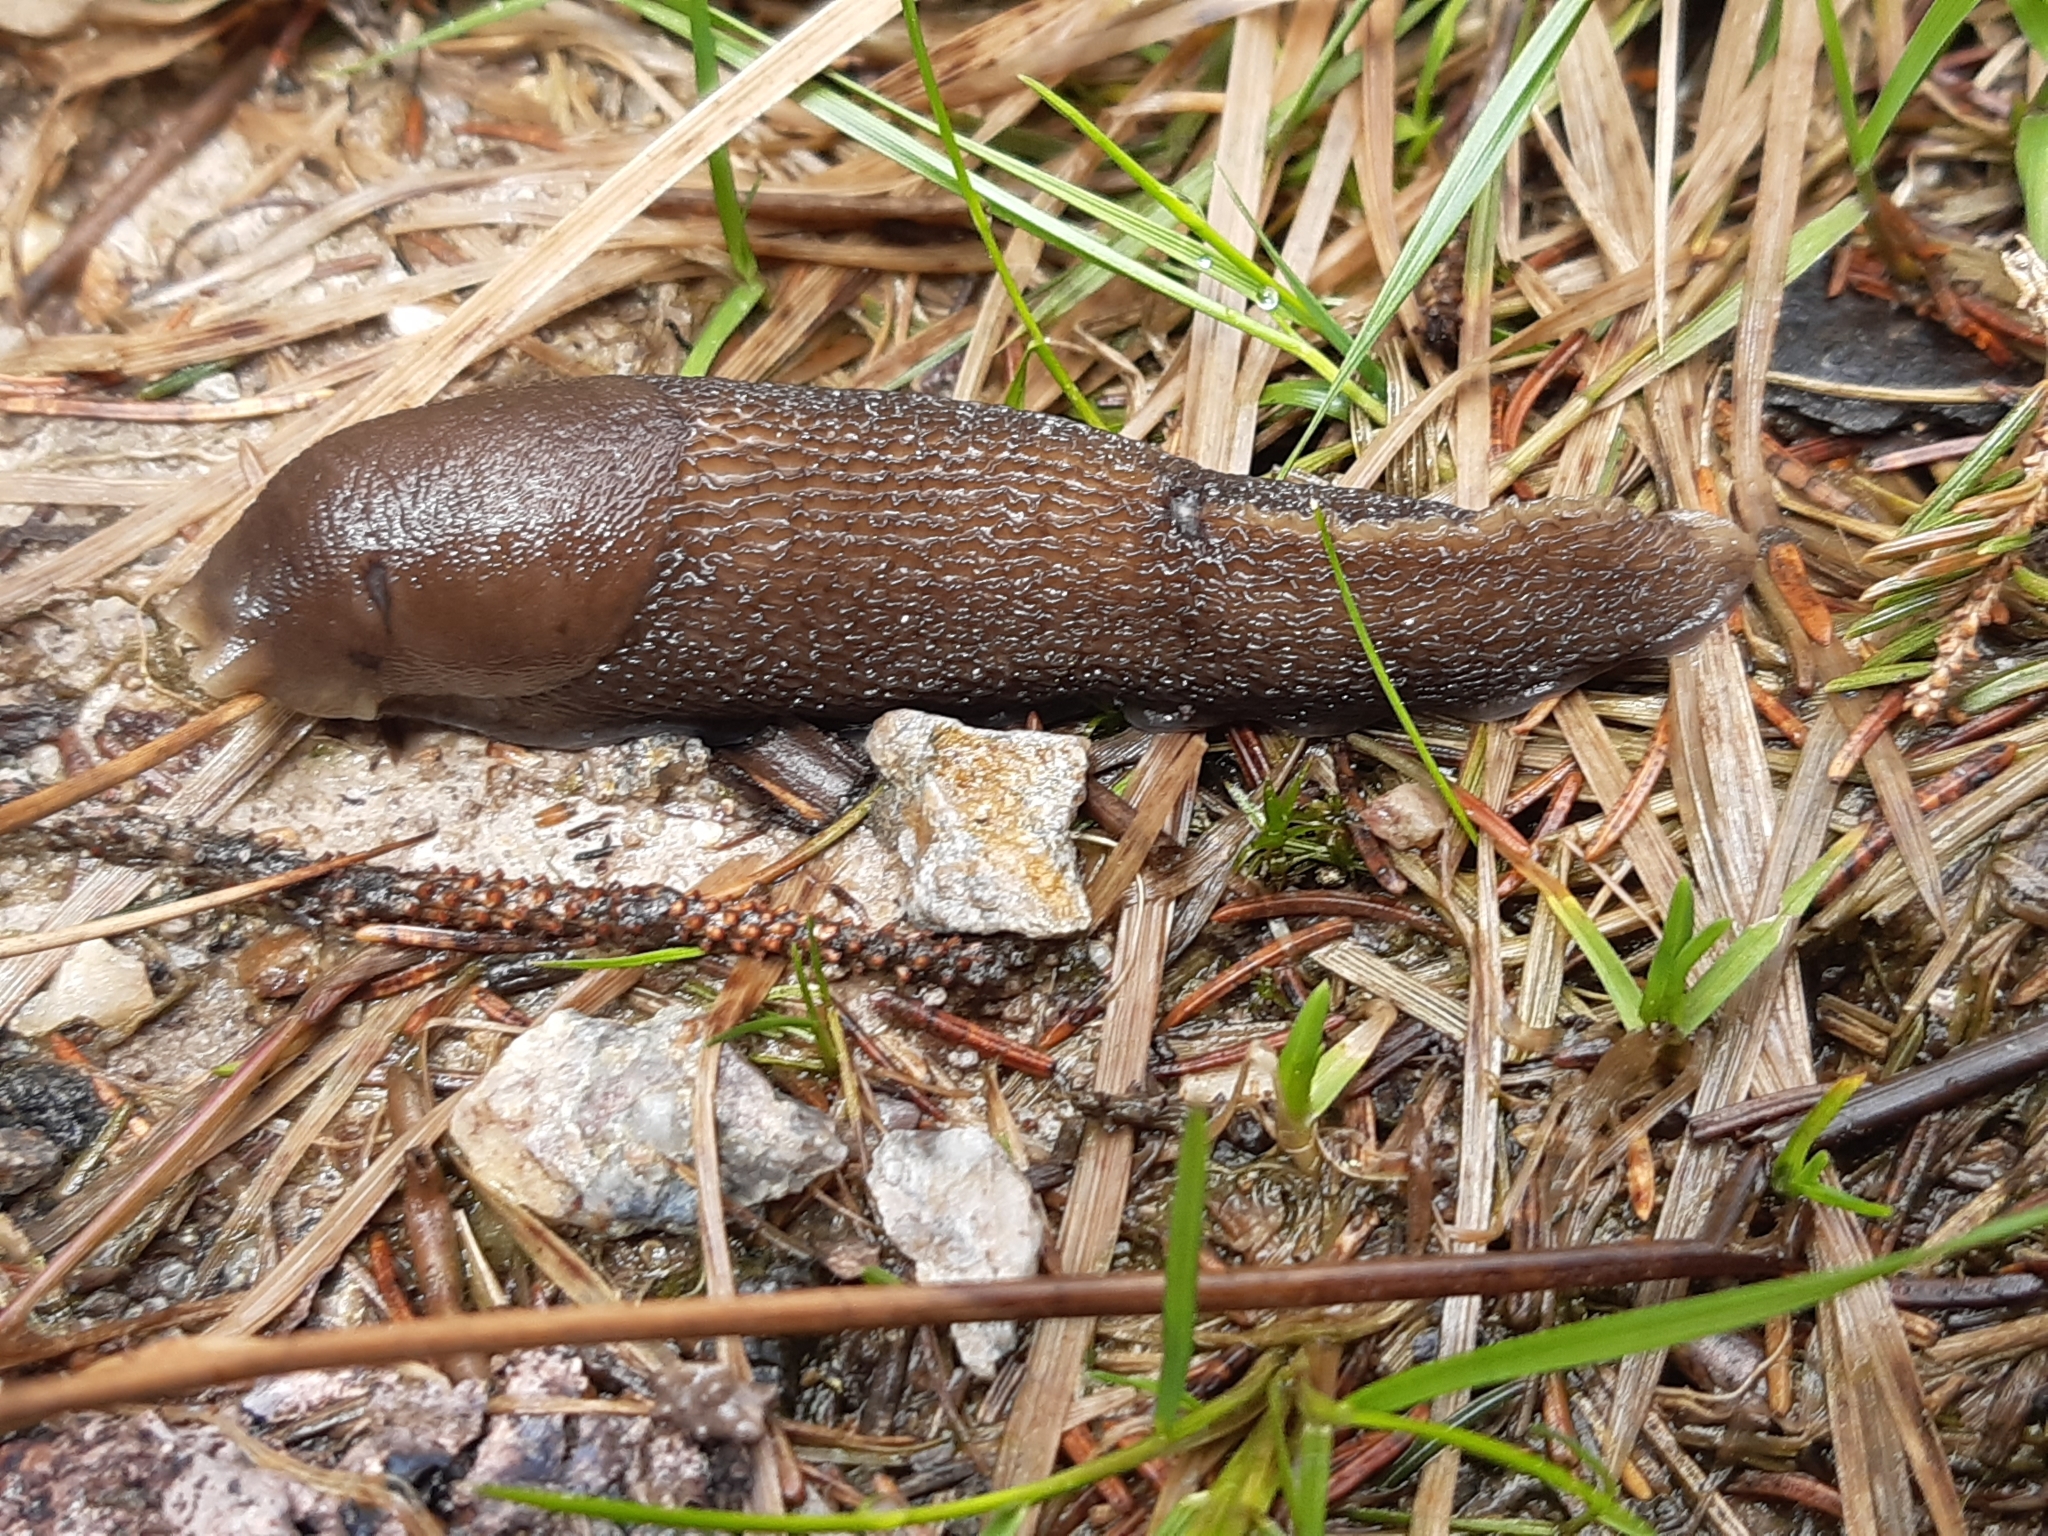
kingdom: Animalia
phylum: Mollusca
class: Gastropoda
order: Stylommatophora
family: Limacidae
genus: Limax
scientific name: Limax cinereoniger
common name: Ash-black slug
